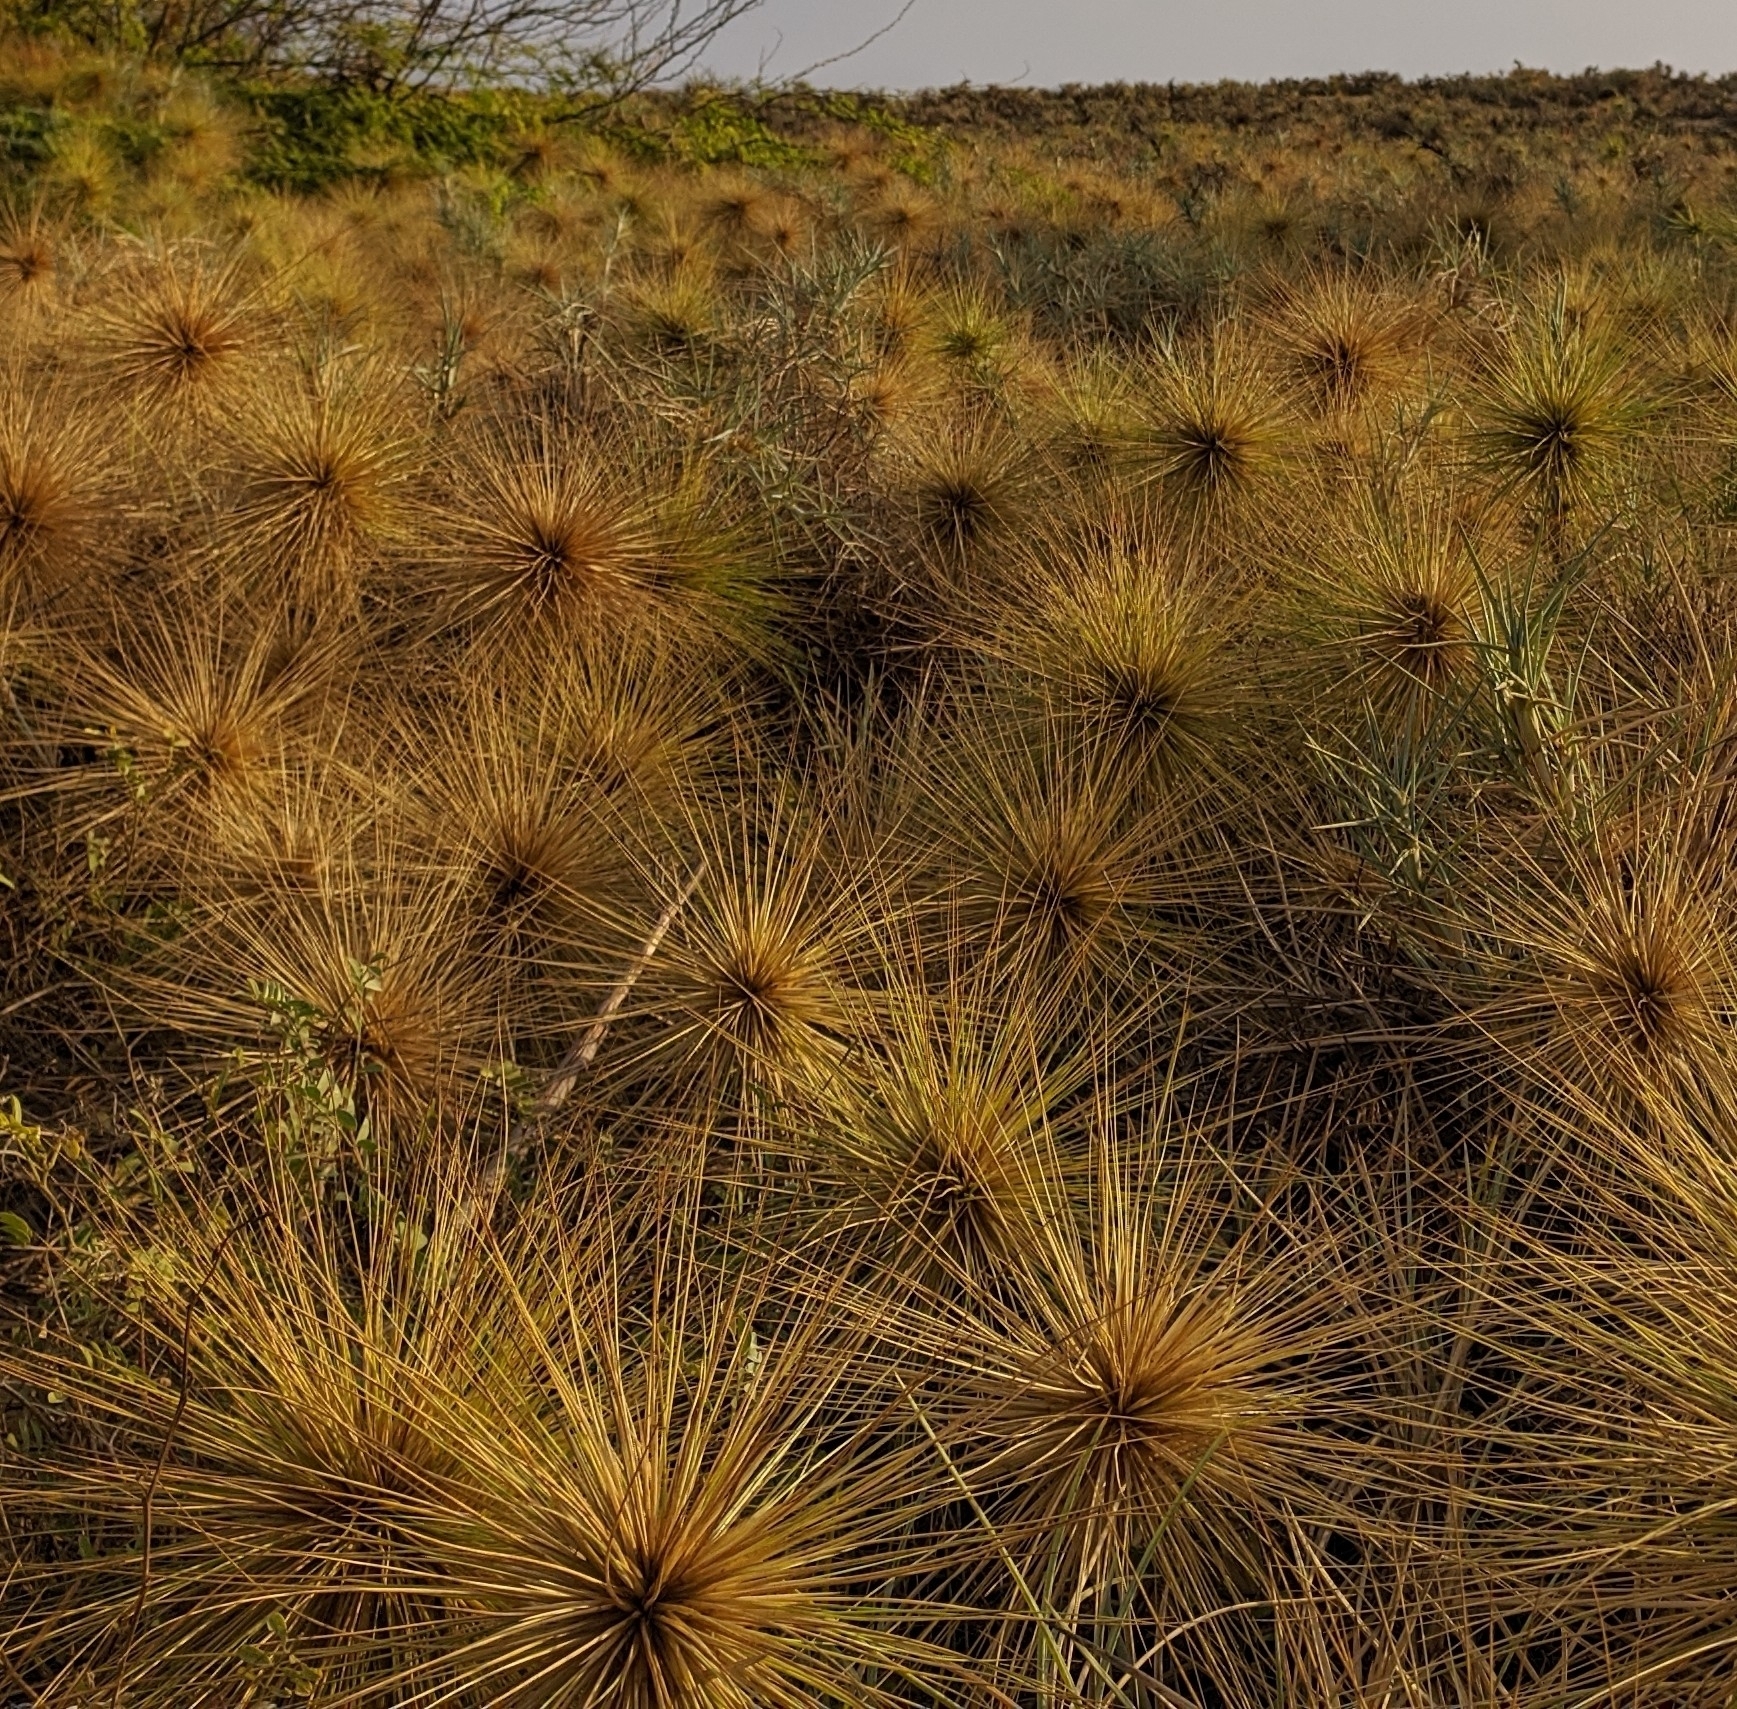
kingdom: Plantae
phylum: Tracheophyta
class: Liliopsida
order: Poales
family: Poaceae
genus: Spinifex
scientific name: Spinifex littoreus
